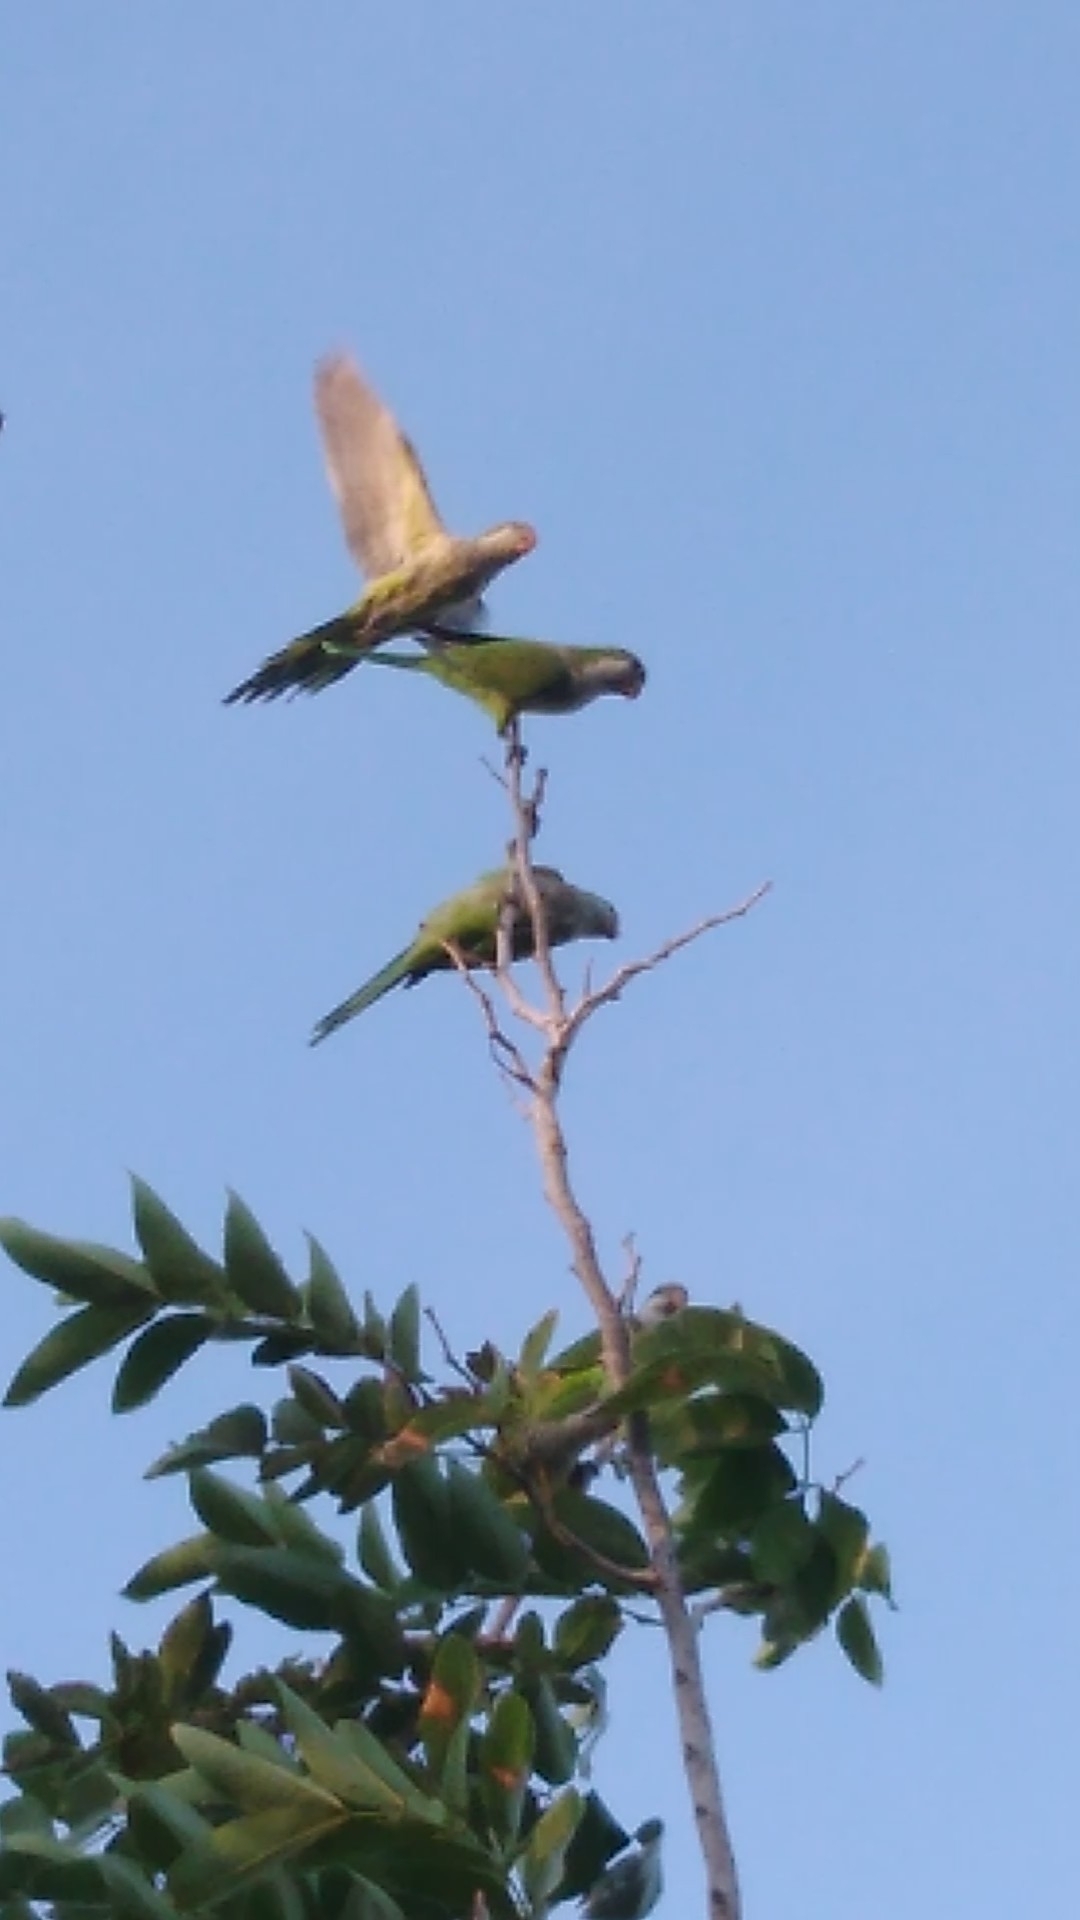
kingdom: Animalia
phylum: Chordata
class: Aves
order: Psittaciformes
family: Psittacidae
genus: Myiopsitta
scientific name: Myiopsitta monachus
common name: Monk parakeet
